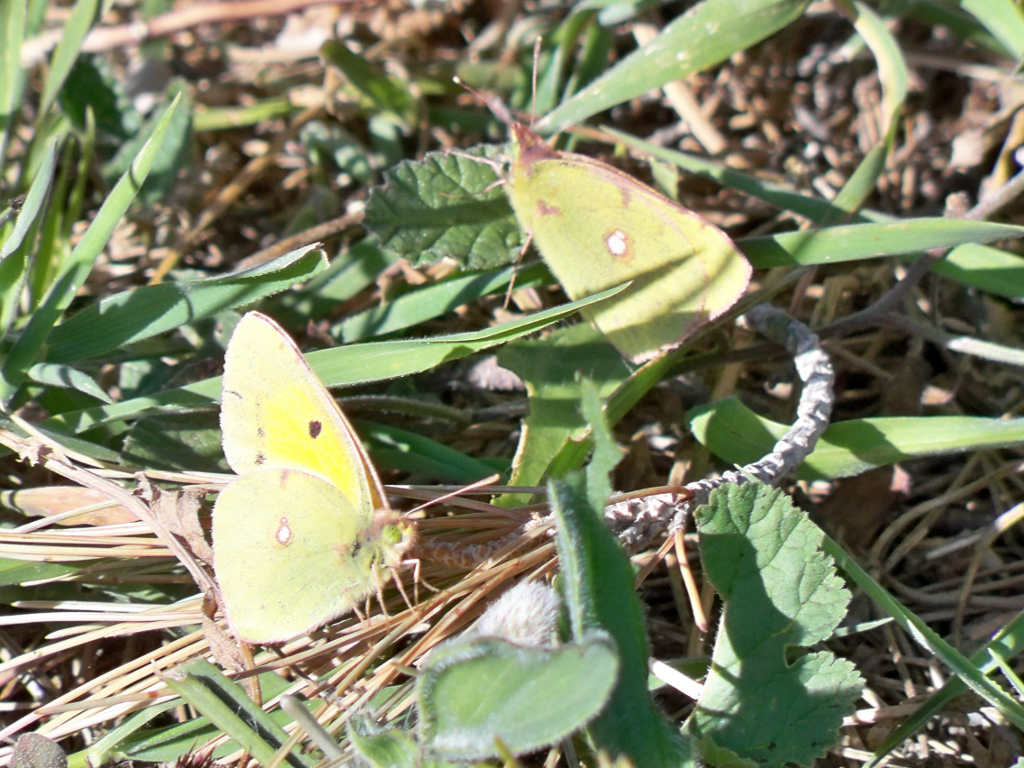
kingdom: Animalia
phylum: Arthropoda
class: Insecta
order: Lepidoptera
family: Pieridae
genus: Colias
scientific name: Colias croceus
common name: Clouded yellow
